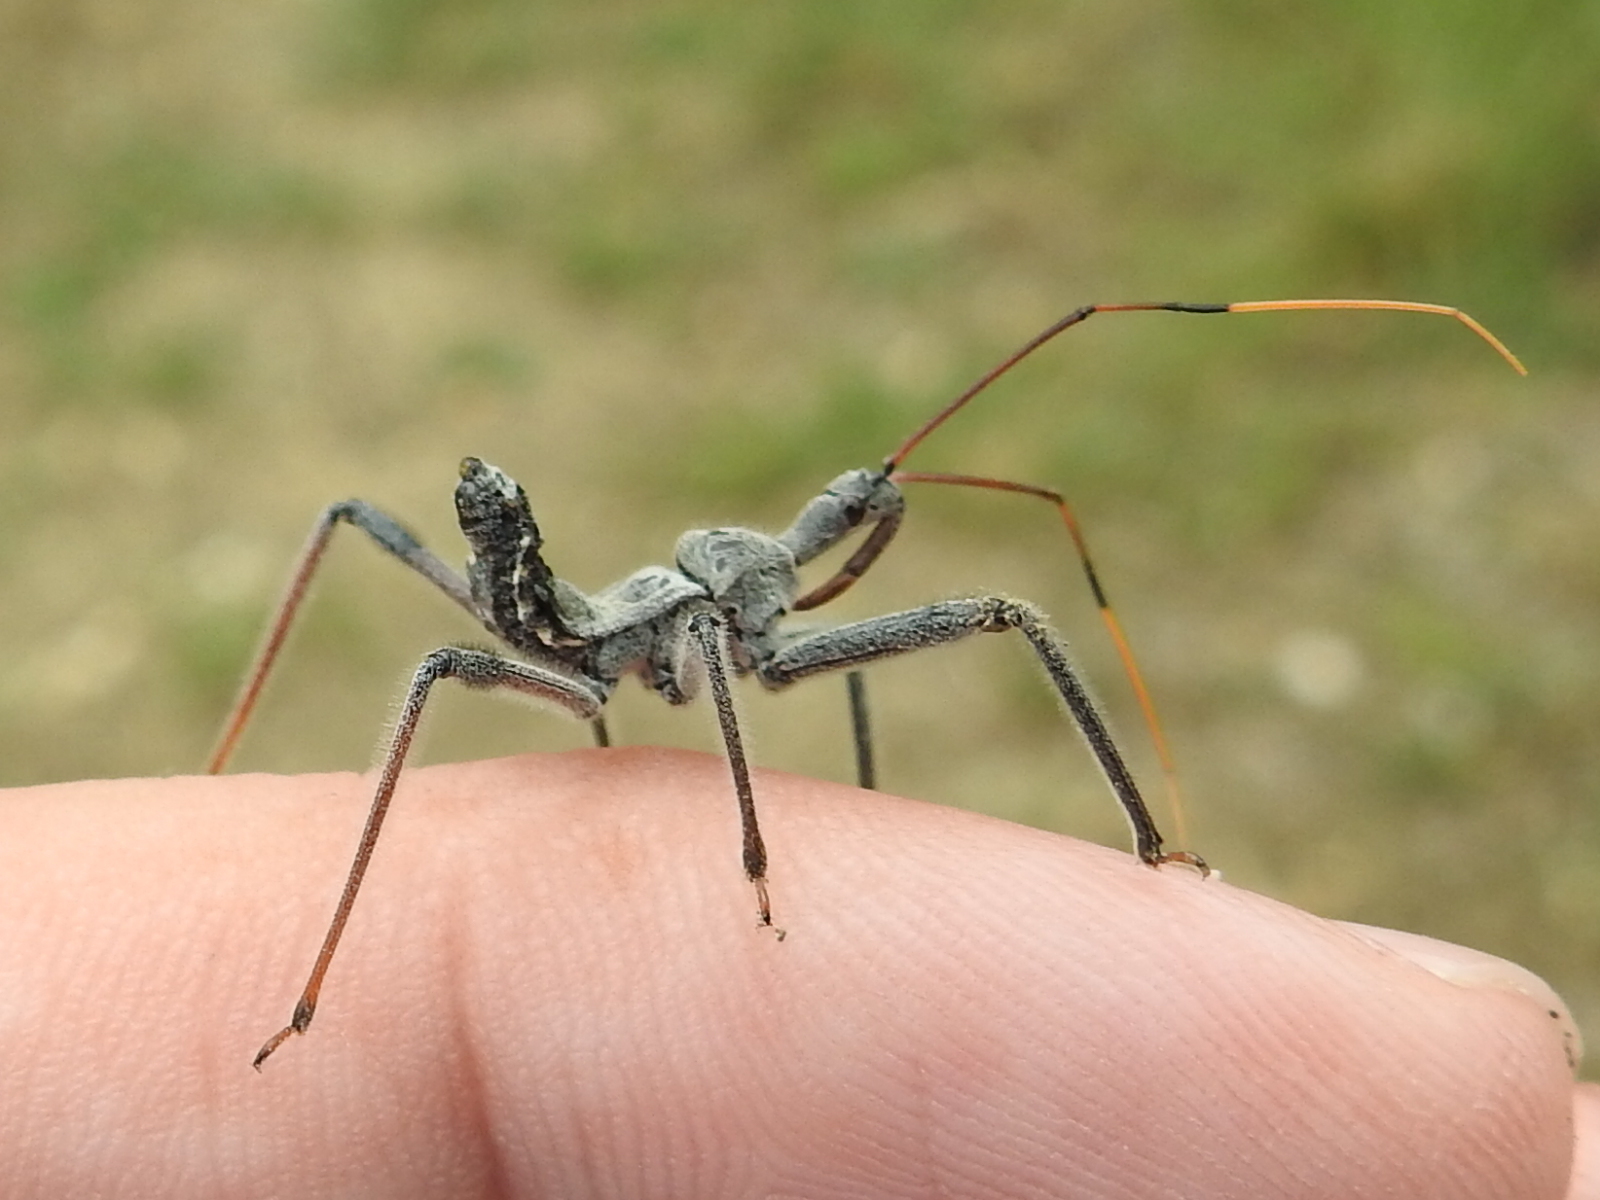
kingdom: Animalia
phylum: Arthropoda
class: Insecta
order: Hemiptera
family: Reduviidae
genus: Arilus
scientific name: Arilus cristatus
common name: North american wheel bug
